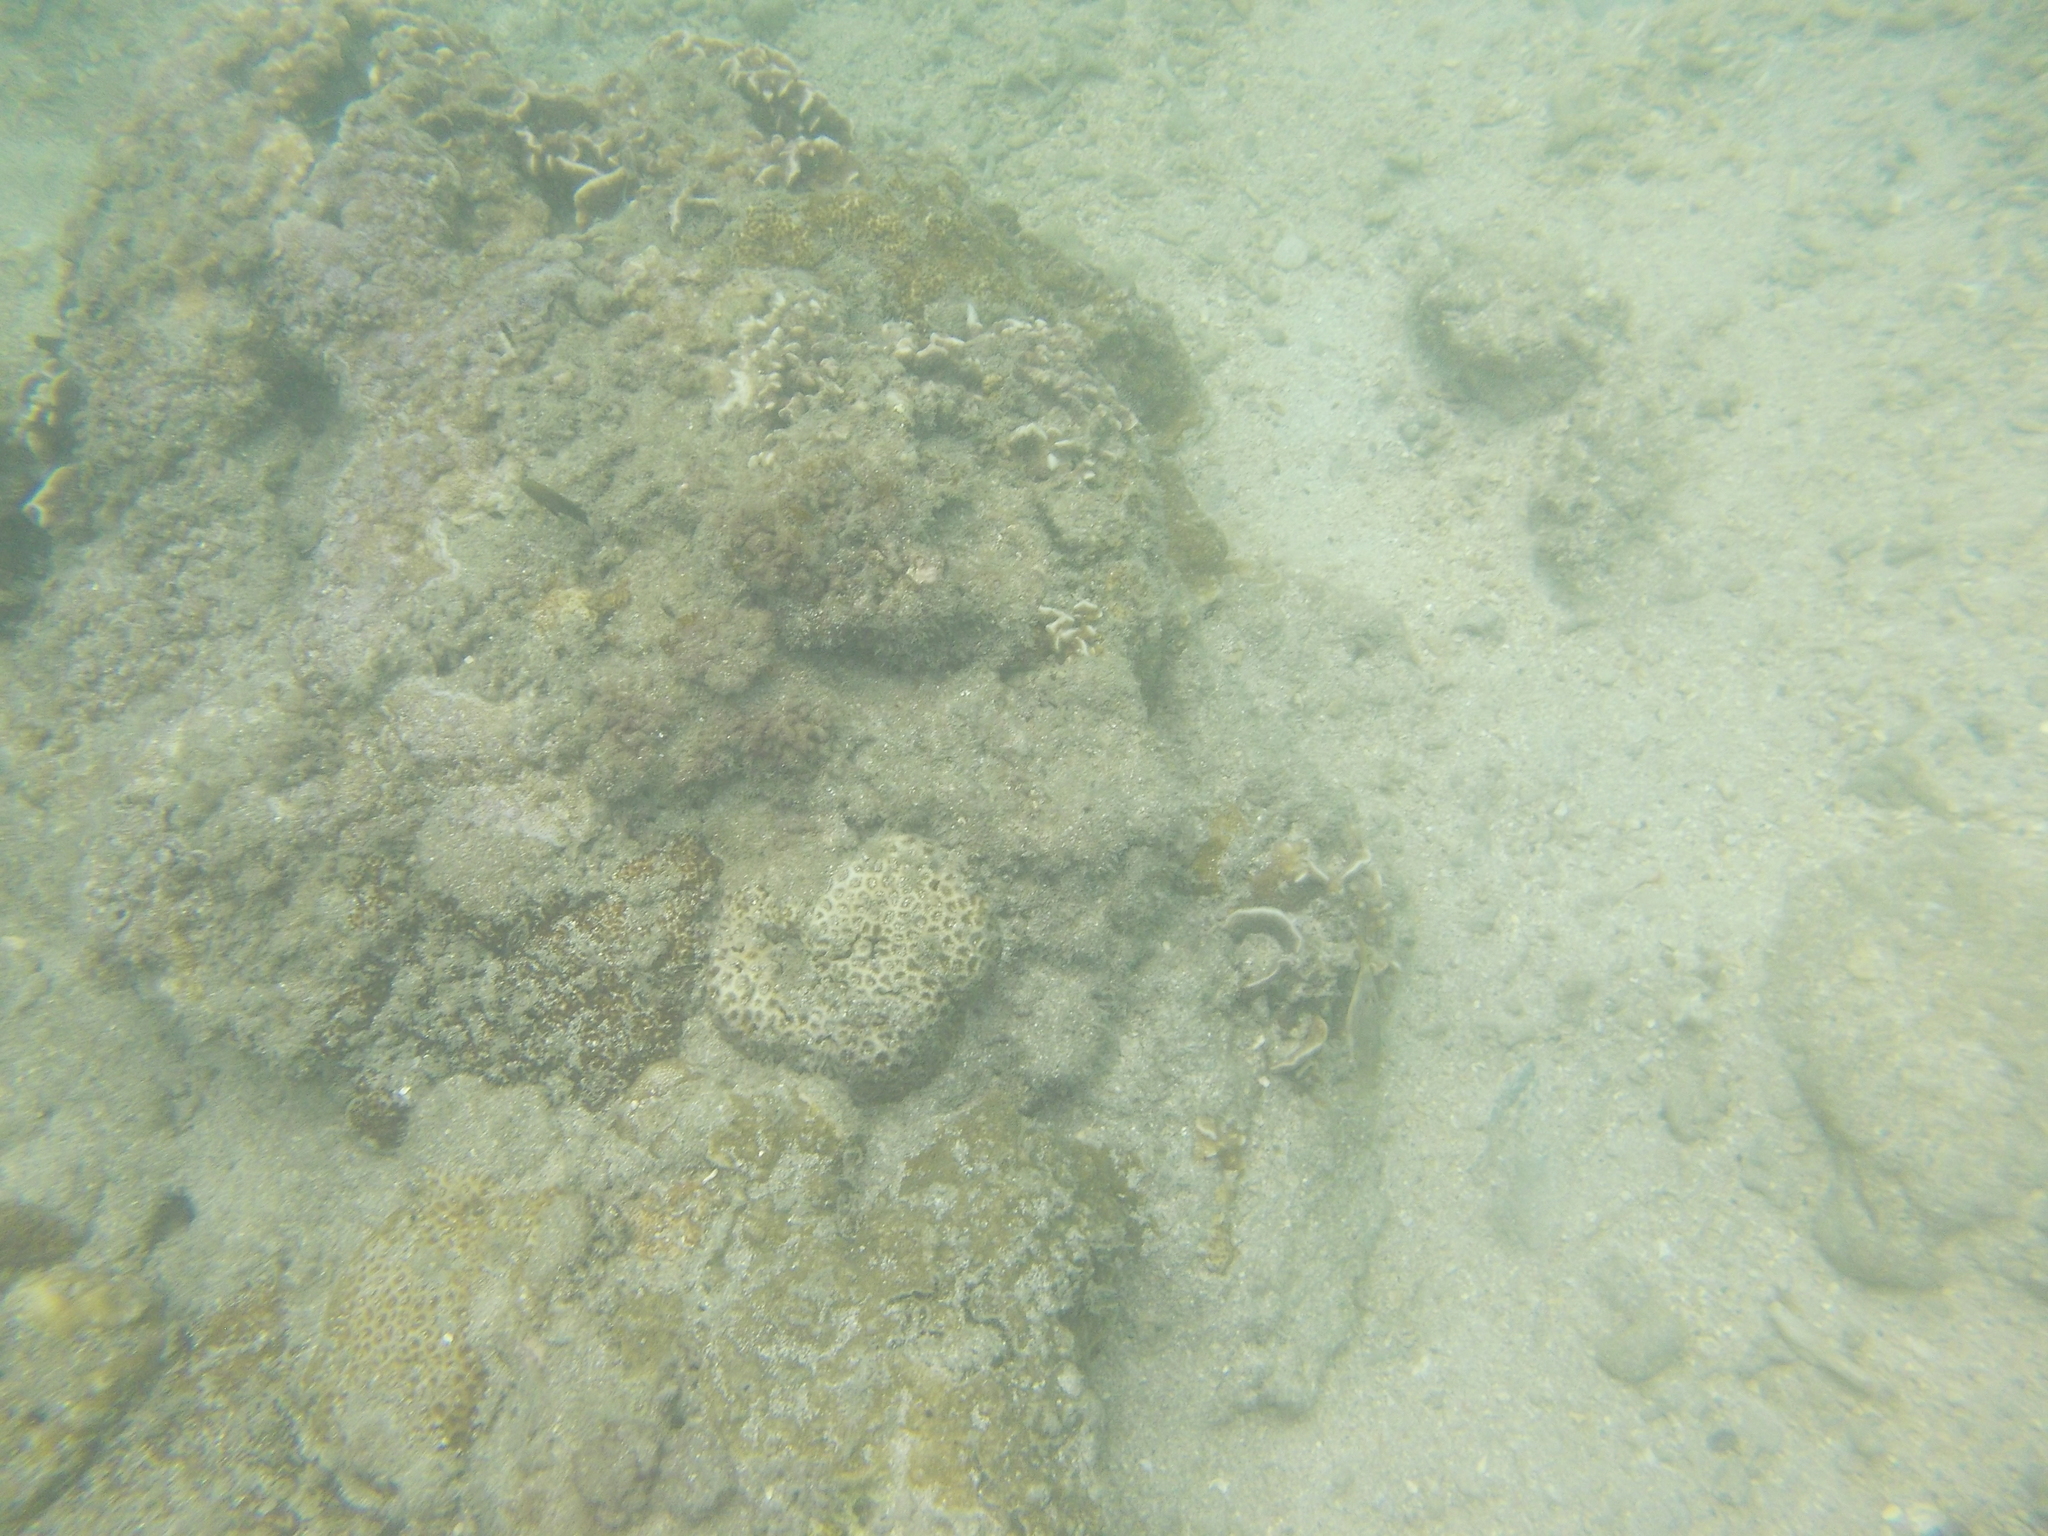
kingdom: Animalia
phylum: Cnidaria
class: Anthozoa
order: Scleractinia
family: Agariciidae
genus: Pavona
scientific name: Pavona decussata
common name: Leaf coral
